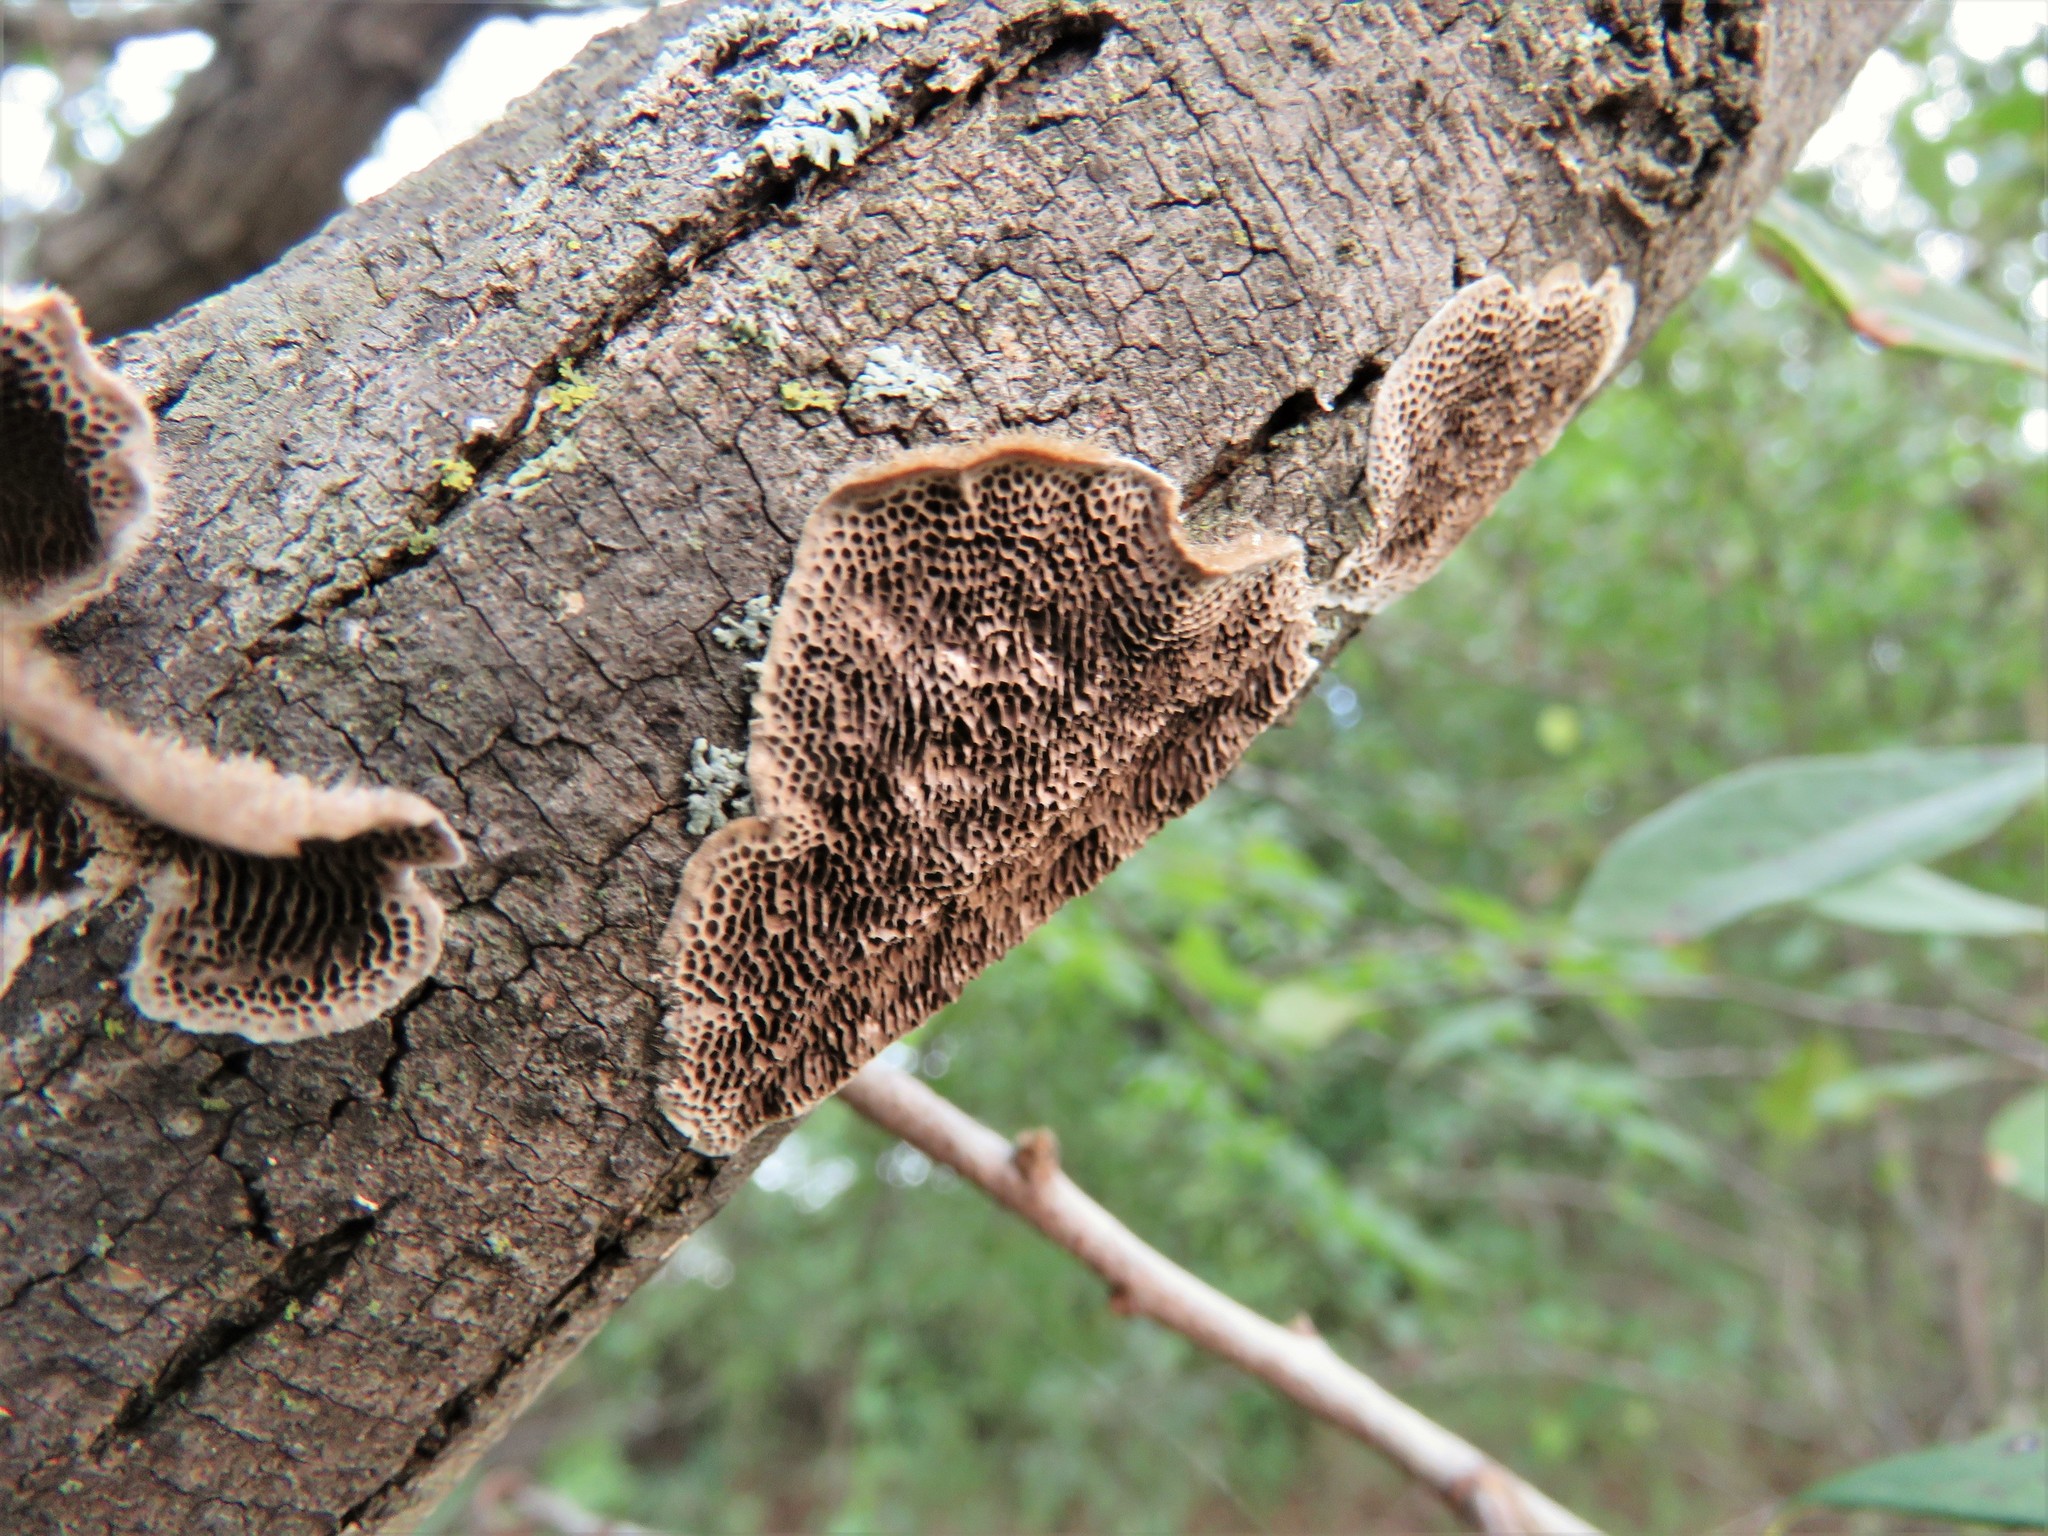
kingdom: Fungi
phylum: Basidiomycota
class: Agaricomycetes
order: Polyporales
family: Polyporaceae
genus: Trametes
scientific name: Trametes villosa
